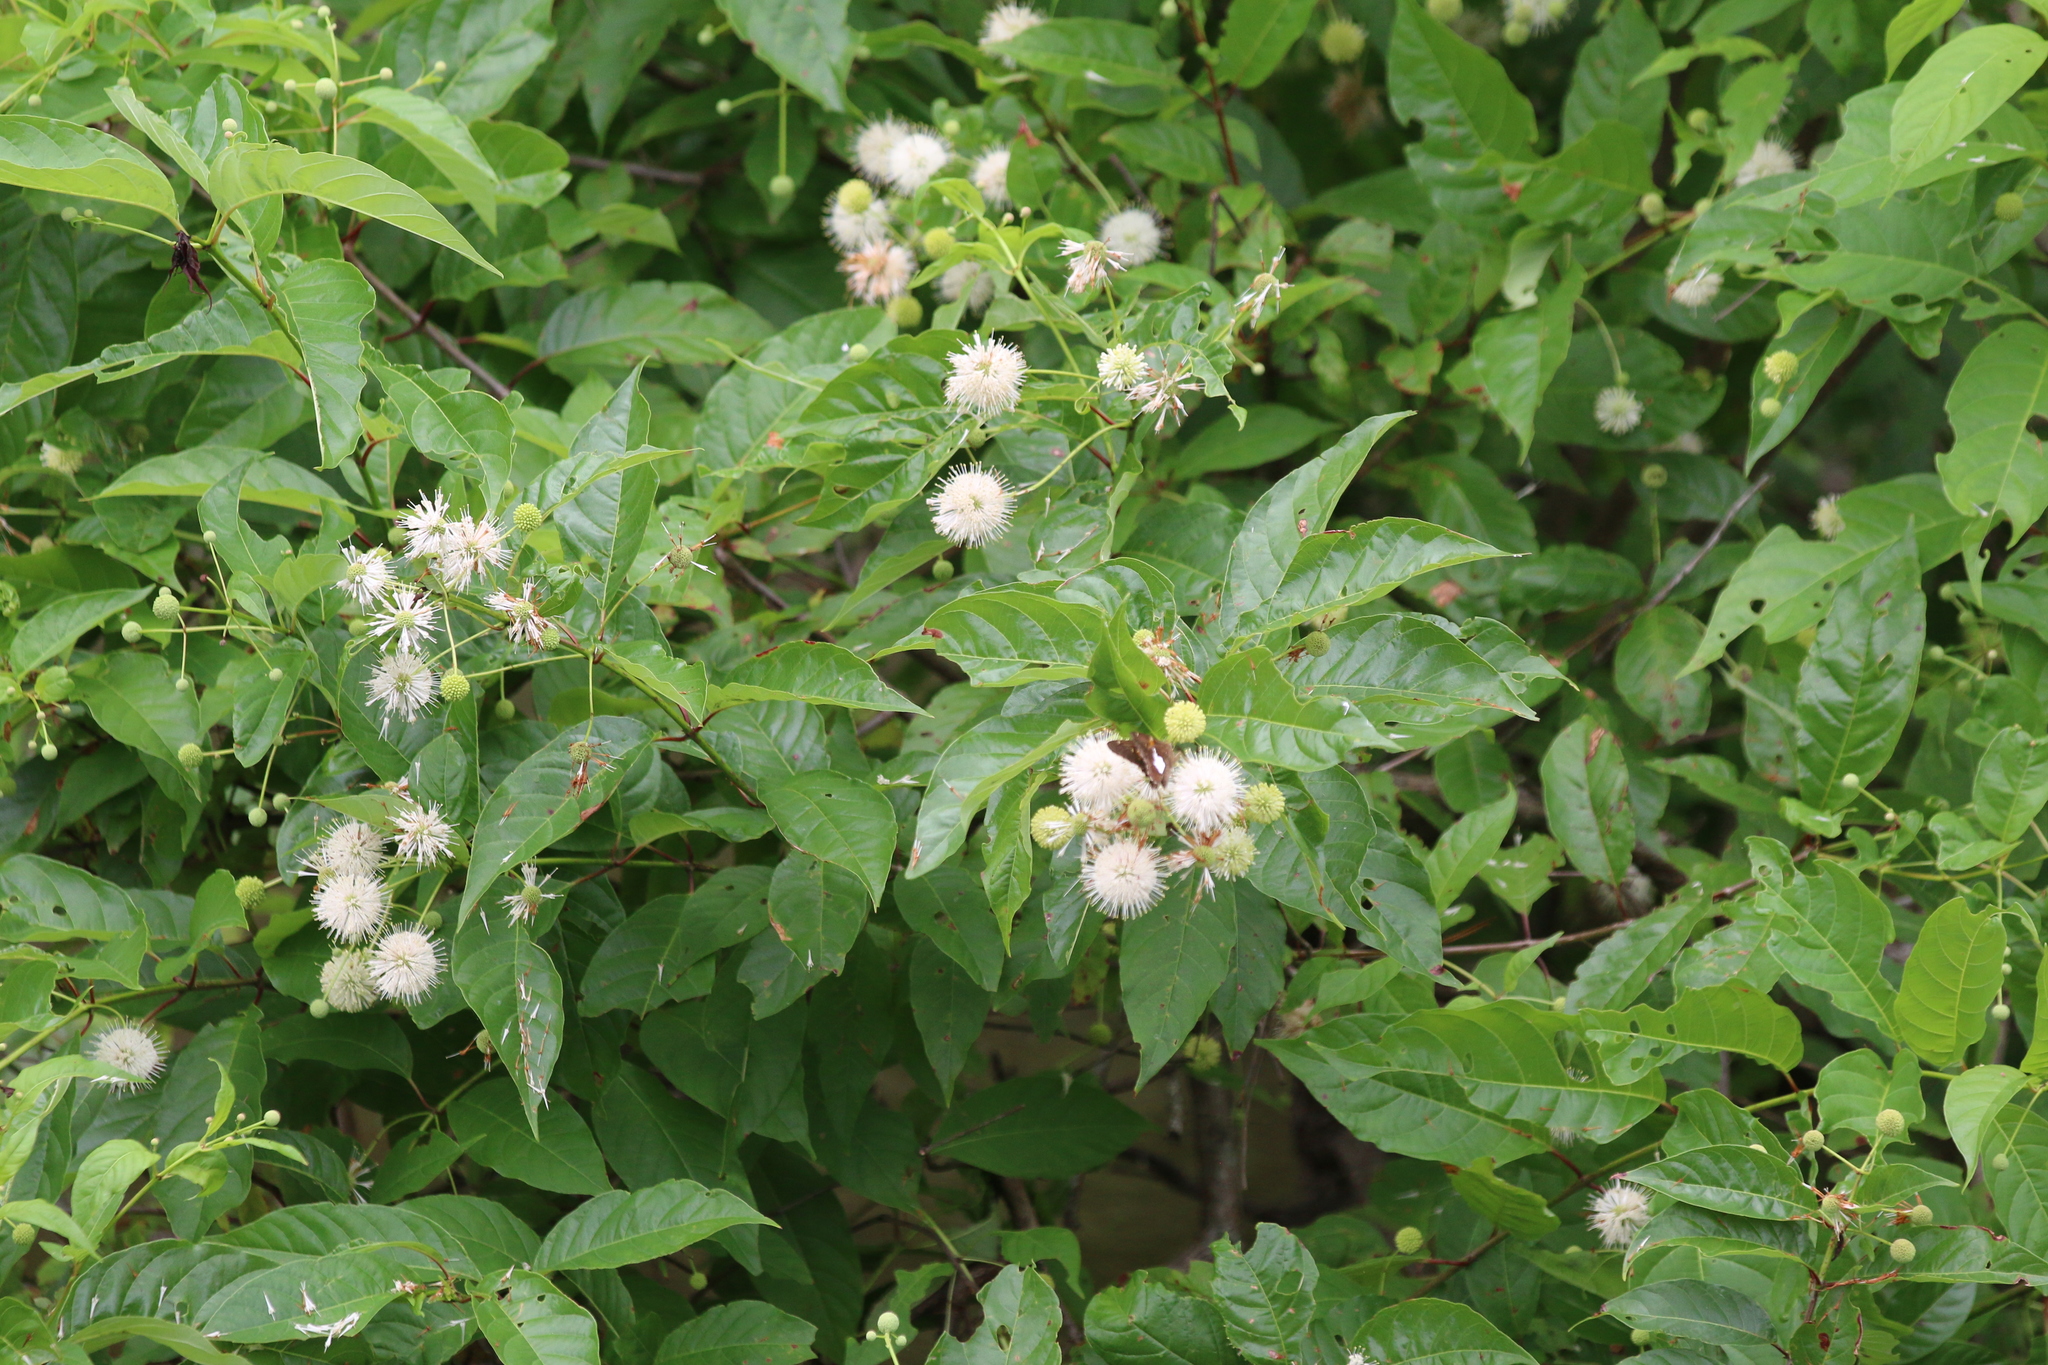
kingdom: Plantae
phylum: Tracheophyta
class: Magnoliopsida
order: Gentianales
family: Rubiaceae
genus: Cephalanthus
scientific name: Cephalanthus occidentalis
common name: Button-willow
